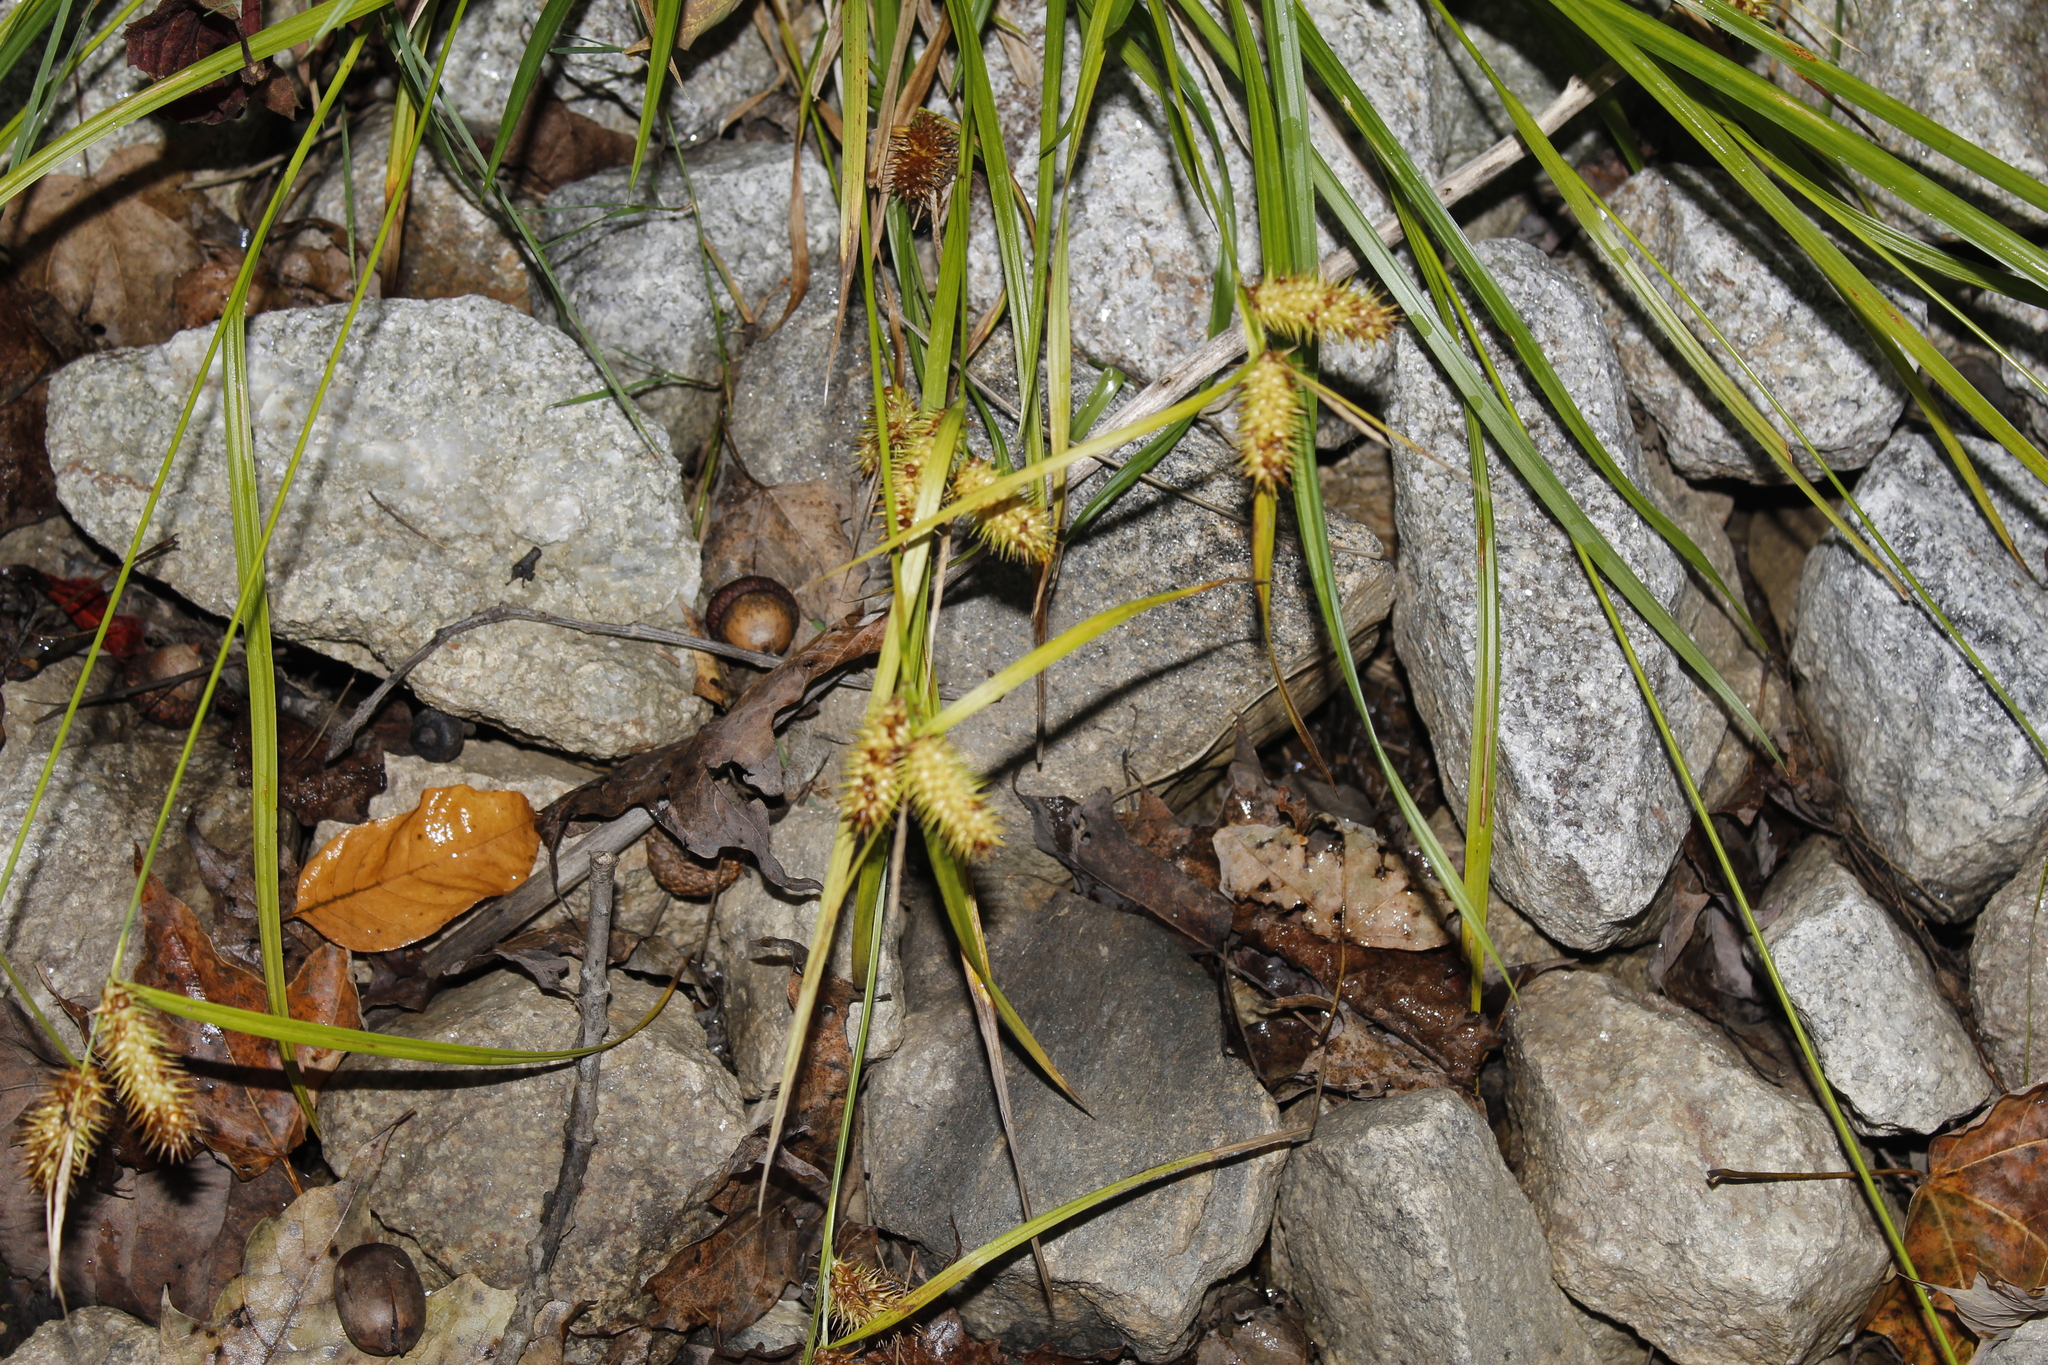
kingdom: Plantae
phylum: Tracheophyta
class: Liliopsida
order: Poales
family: Cyperaceae
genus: Carex
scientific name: Carex lurida
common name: Sallow sedge
